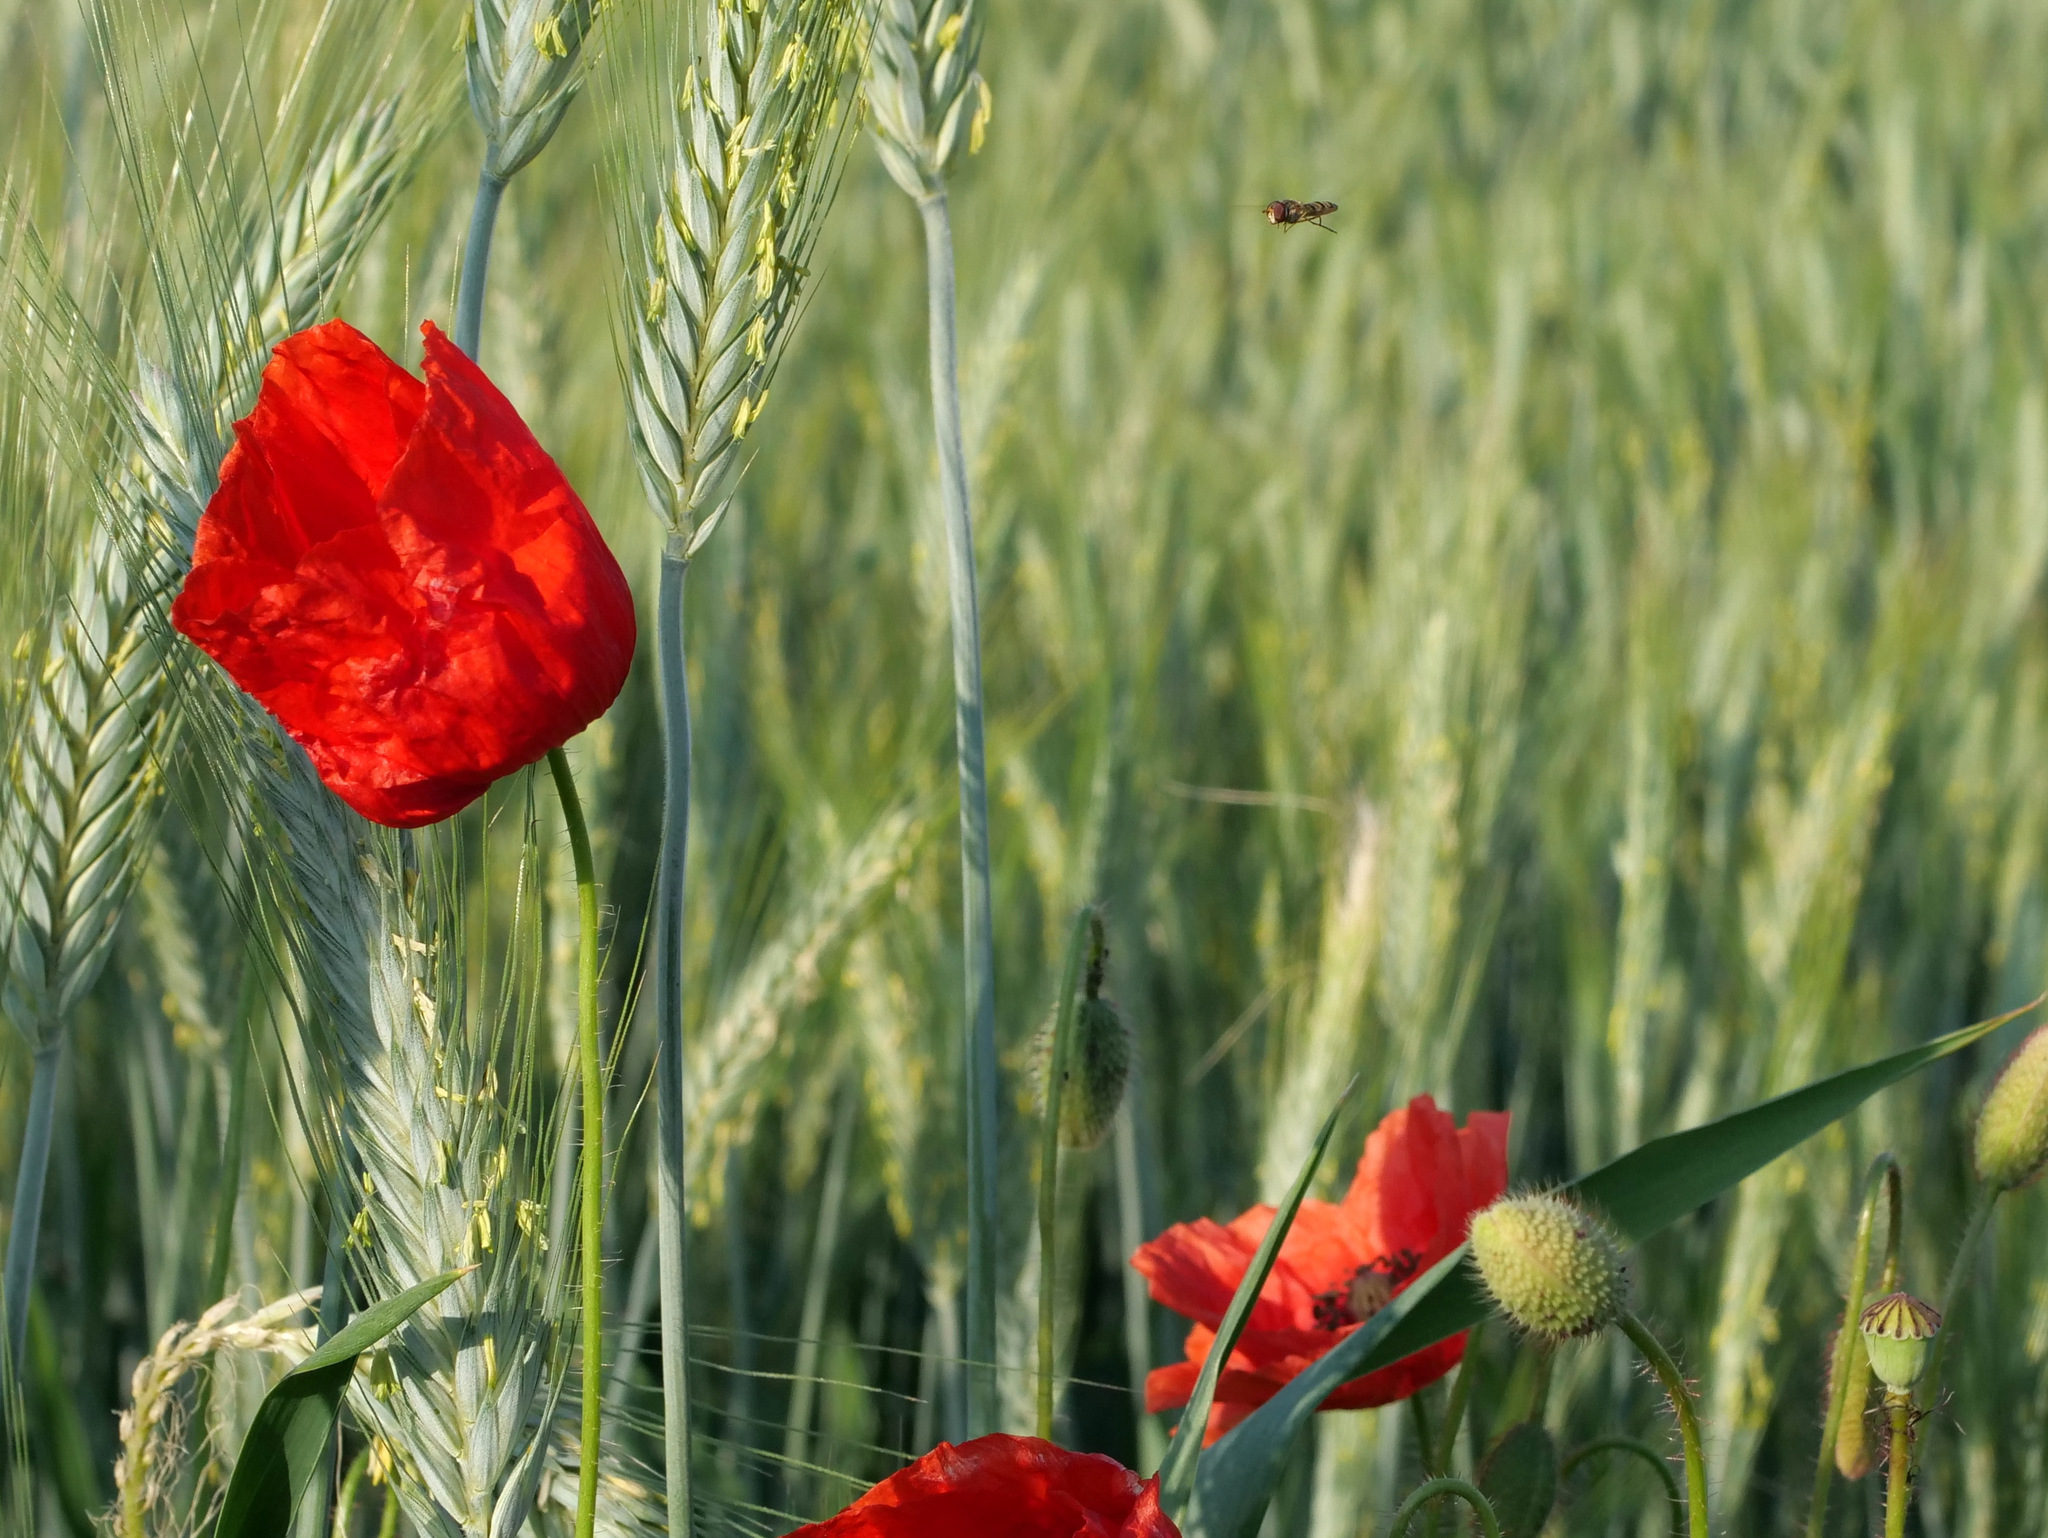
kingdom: Plantae
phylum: Tracheophyta
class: Magnoliopsida
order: Ranunculales
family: Papaveraceae
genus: Papaver
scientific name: Papaver rhoeas
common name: Corn poppy
